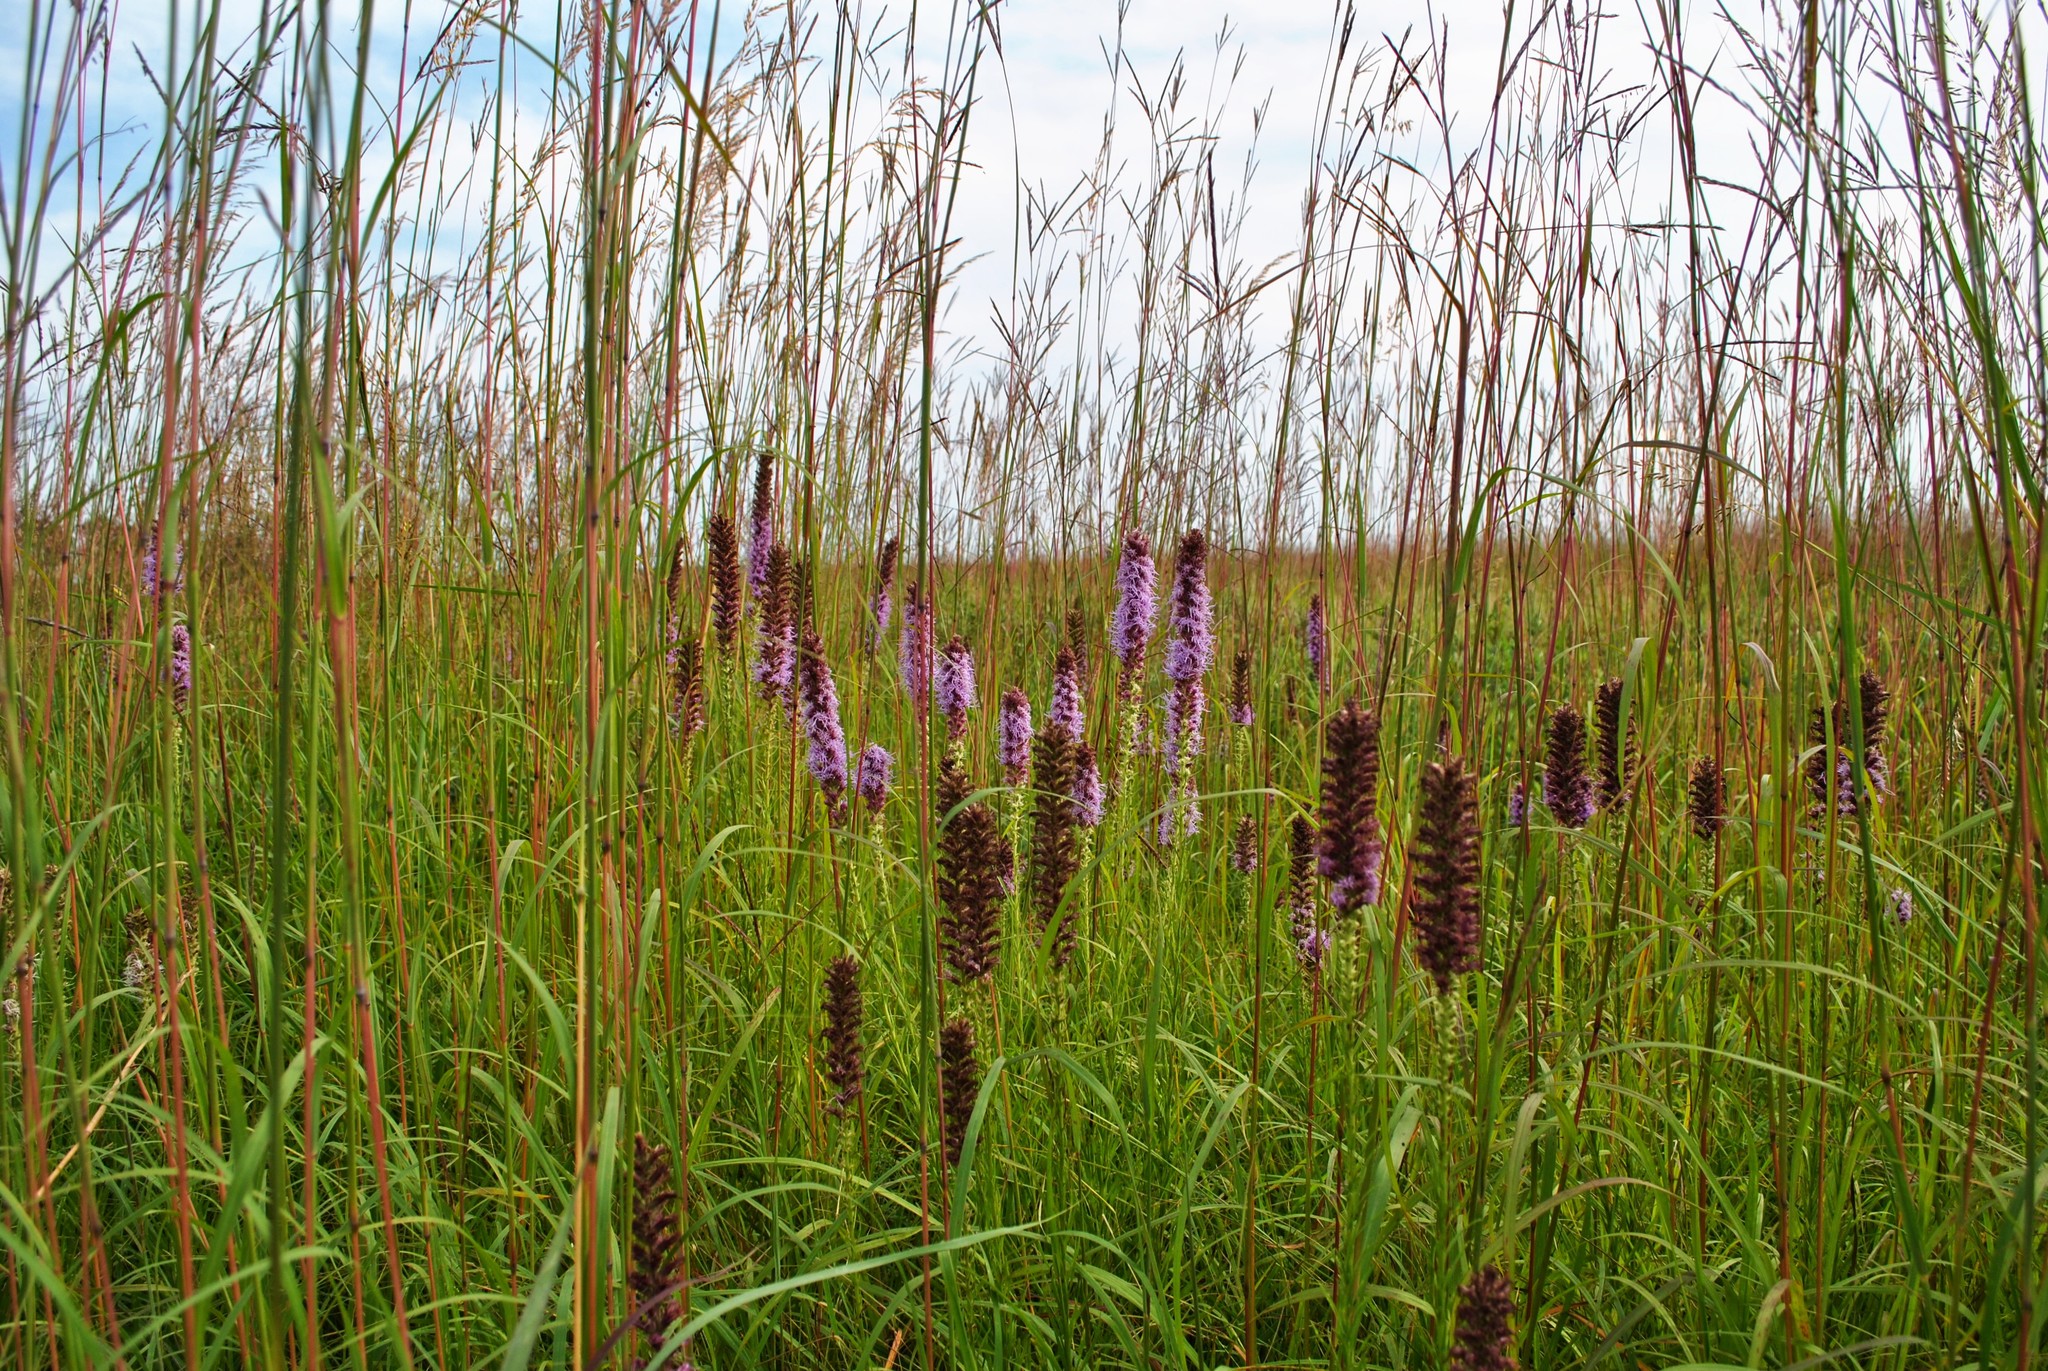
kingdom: Plantae
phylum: Tracheophyta
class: Magnoliopsida
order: Asterales
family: Asteraceae
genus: Liatris
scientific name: Liatris pycnostachya
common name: Cattail gayfeather
